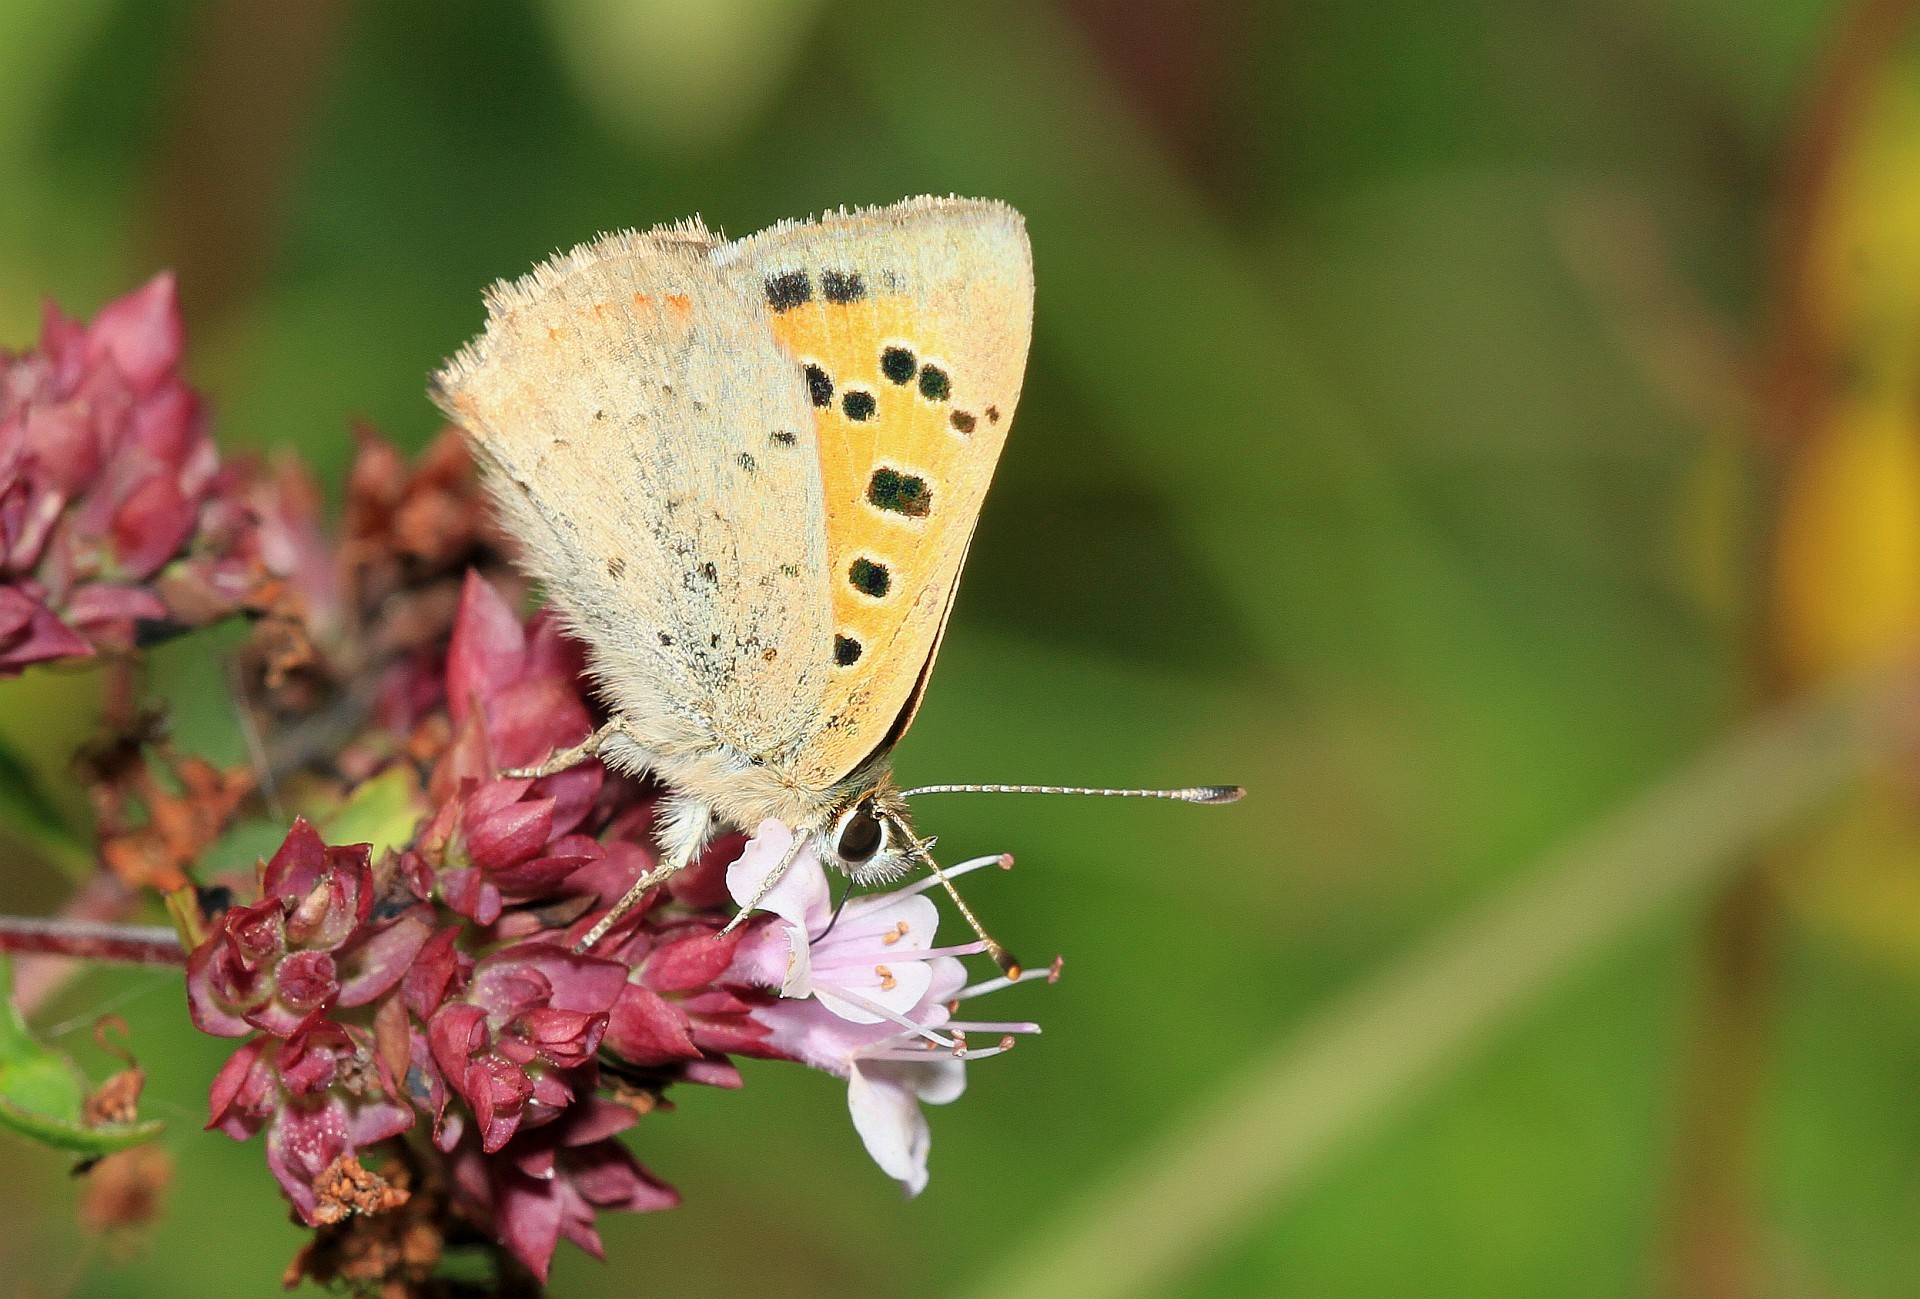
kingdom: Animalia
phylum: Arthropoda
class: Insecta
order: Lepidoptera
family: Lycaenidae
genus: Lycaena
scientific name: Lycaena phlaeas
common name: Small copper
